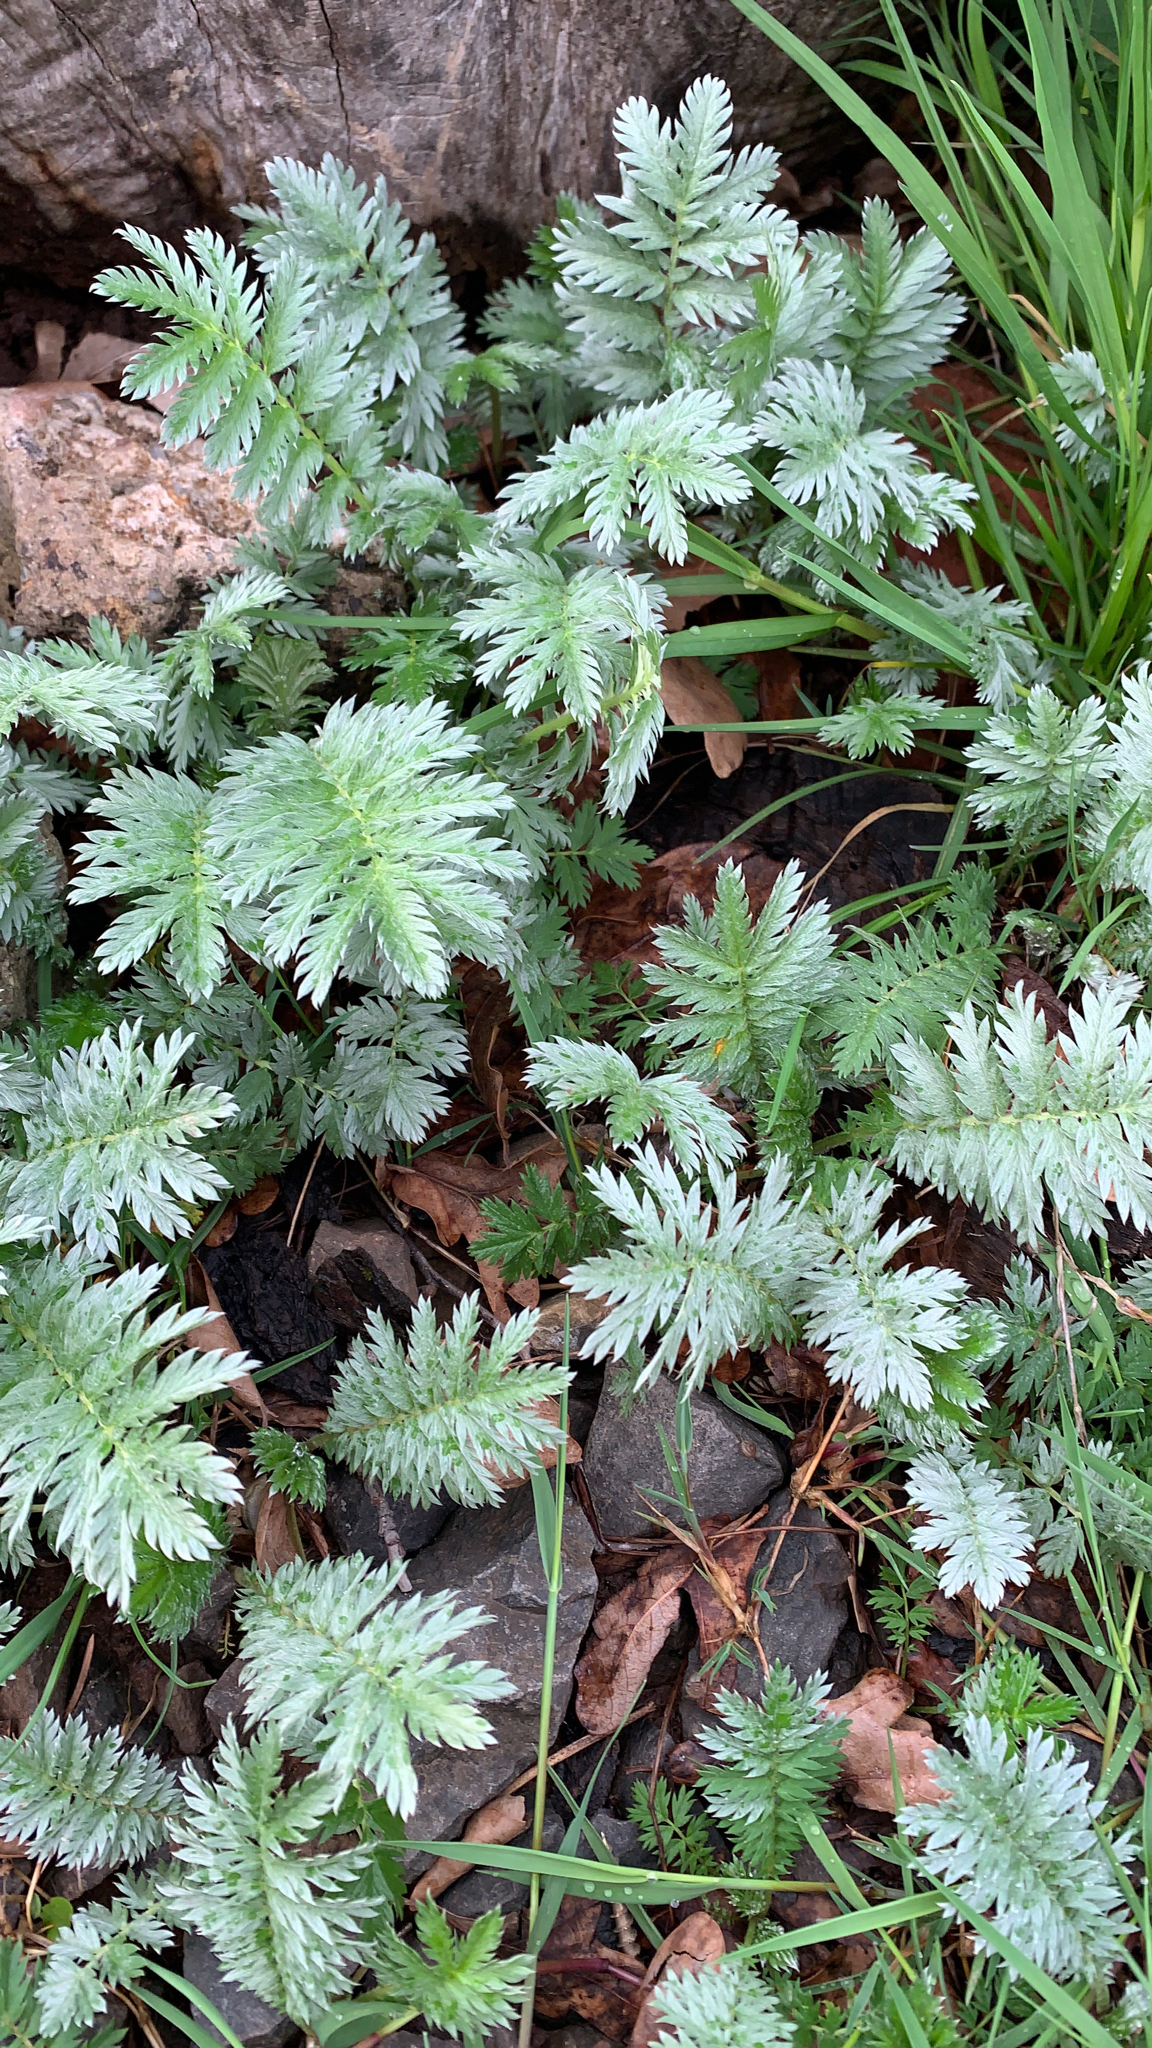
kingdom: Plantae
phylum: Tracheophyta
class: Magnoliopsida
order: Rosales
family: Rosaceae
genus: Argentina
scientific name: Argentina anserina
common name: Common silverweed
